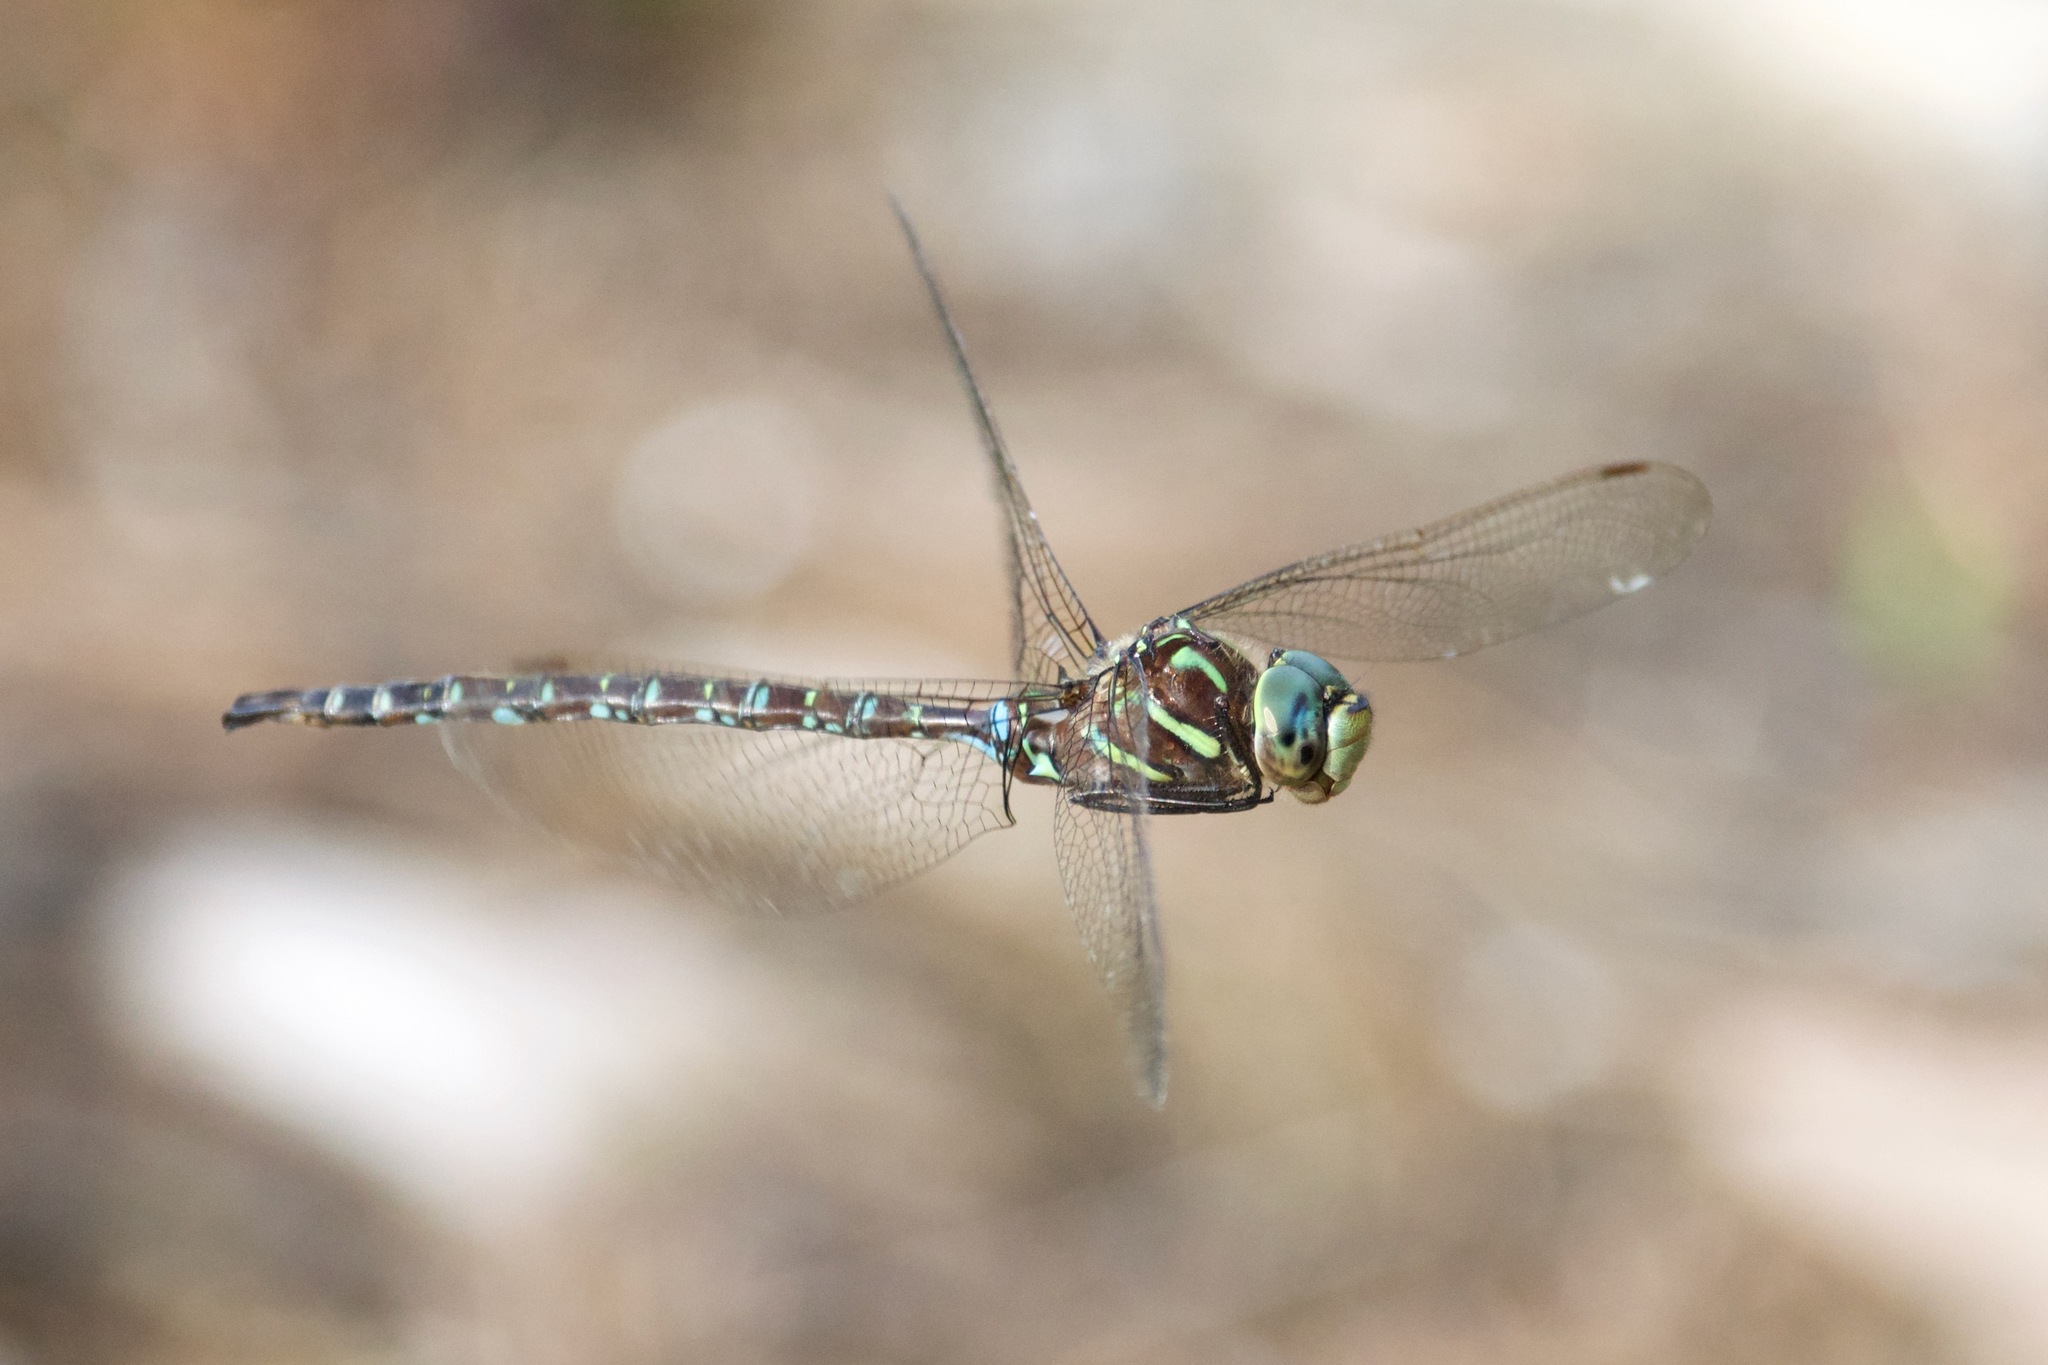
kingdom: Animalia
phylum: Arthropoda
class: Insecta
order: Odonata
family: Aeshnidae
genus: Aeshna
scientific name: Aeshna umbrosa
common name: Shadow darner
